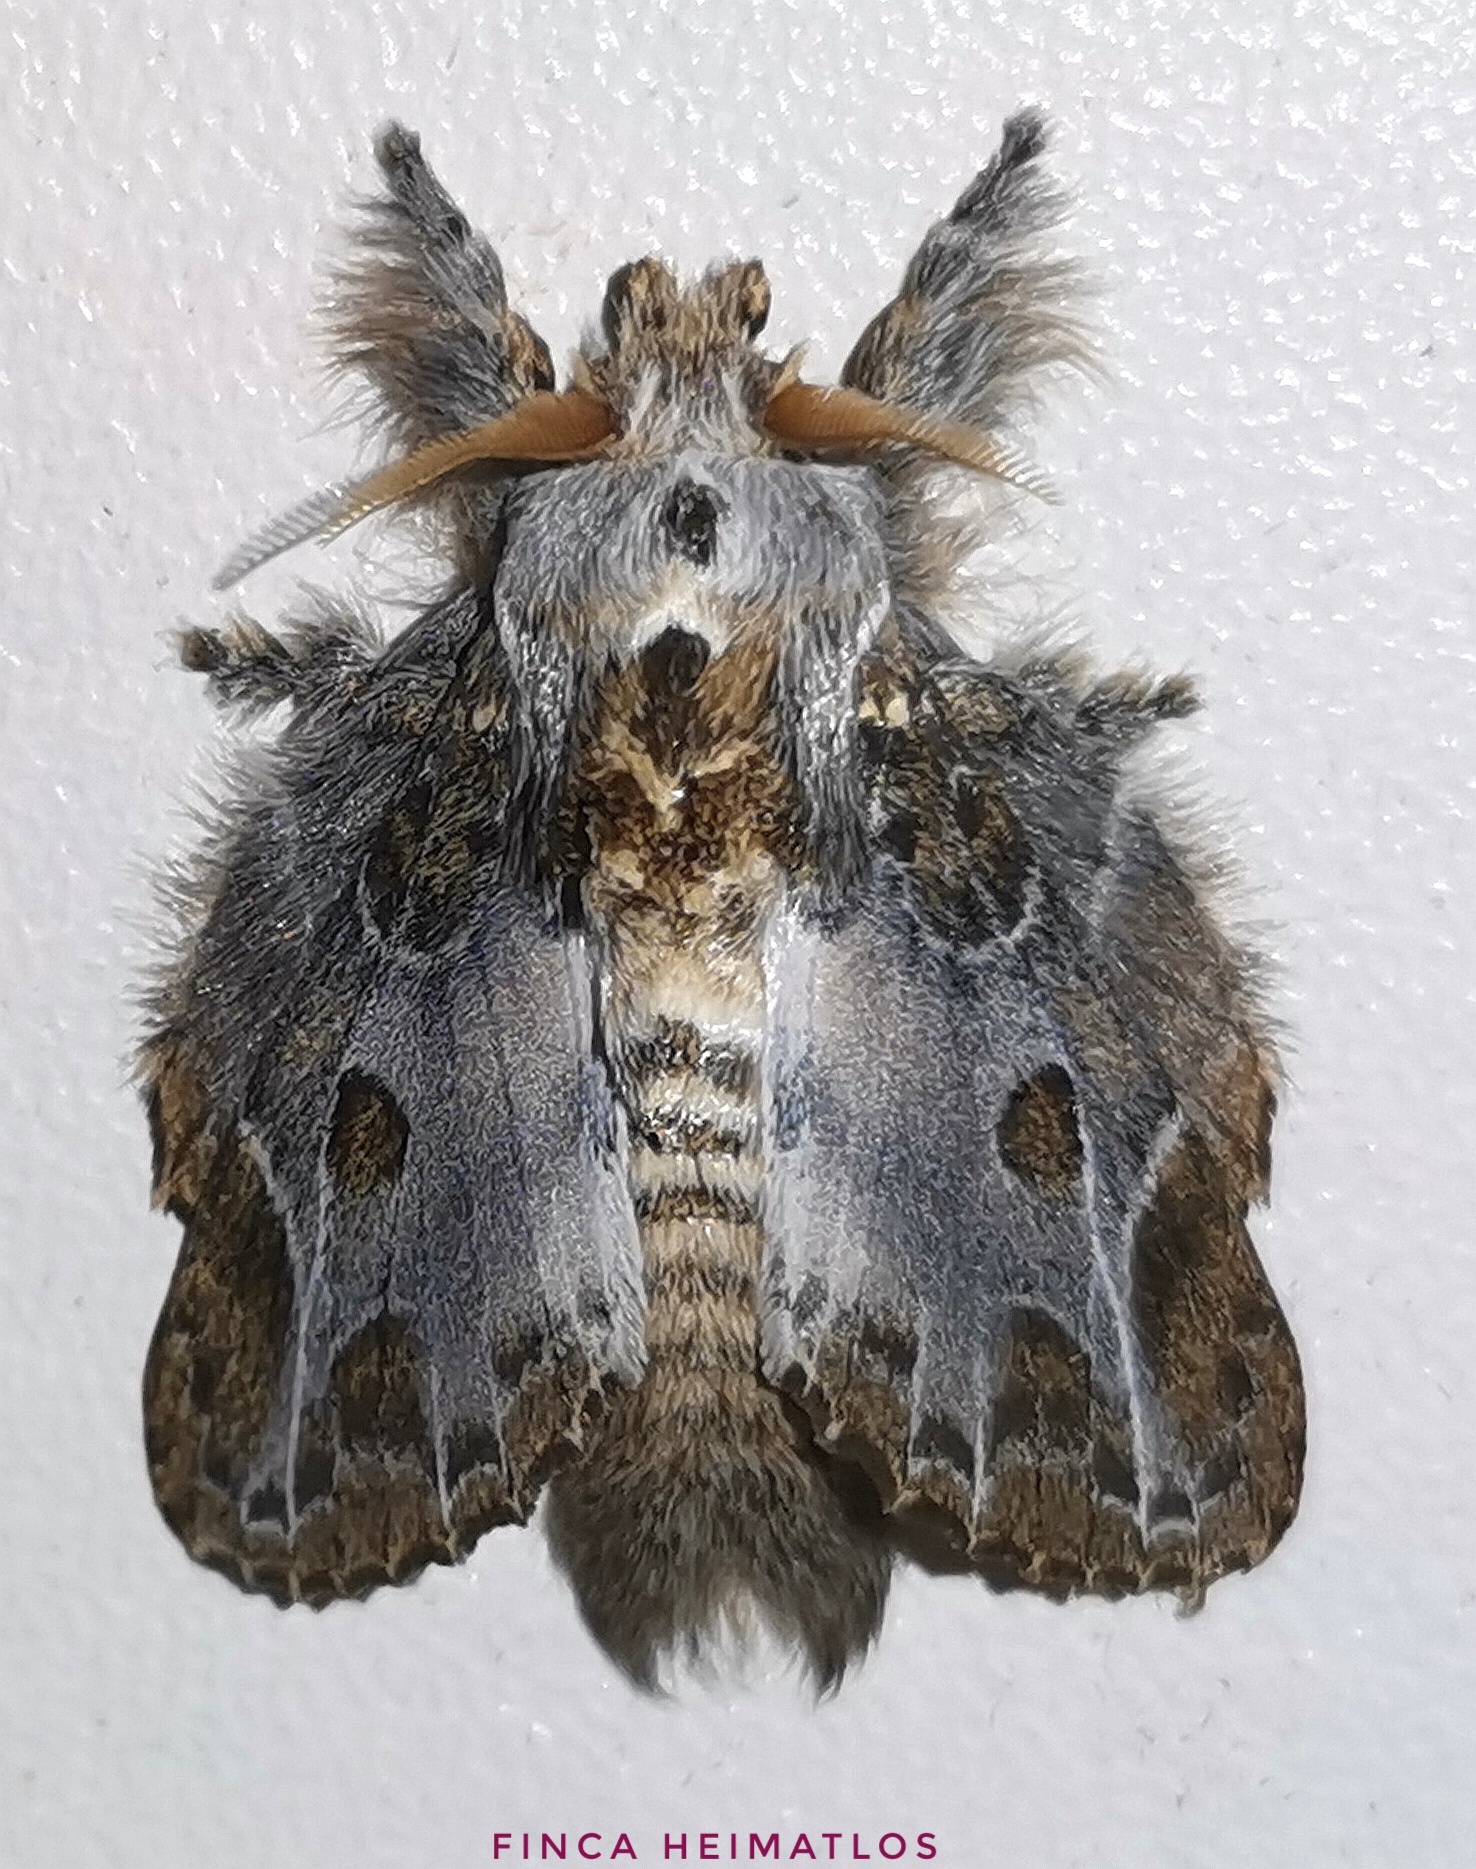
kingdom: Animalia
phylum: Arthropoda
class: Insecta
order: Lepidoptera
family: Lasiocampidae
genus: Euglyphis
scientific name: Euglyphis laronia
